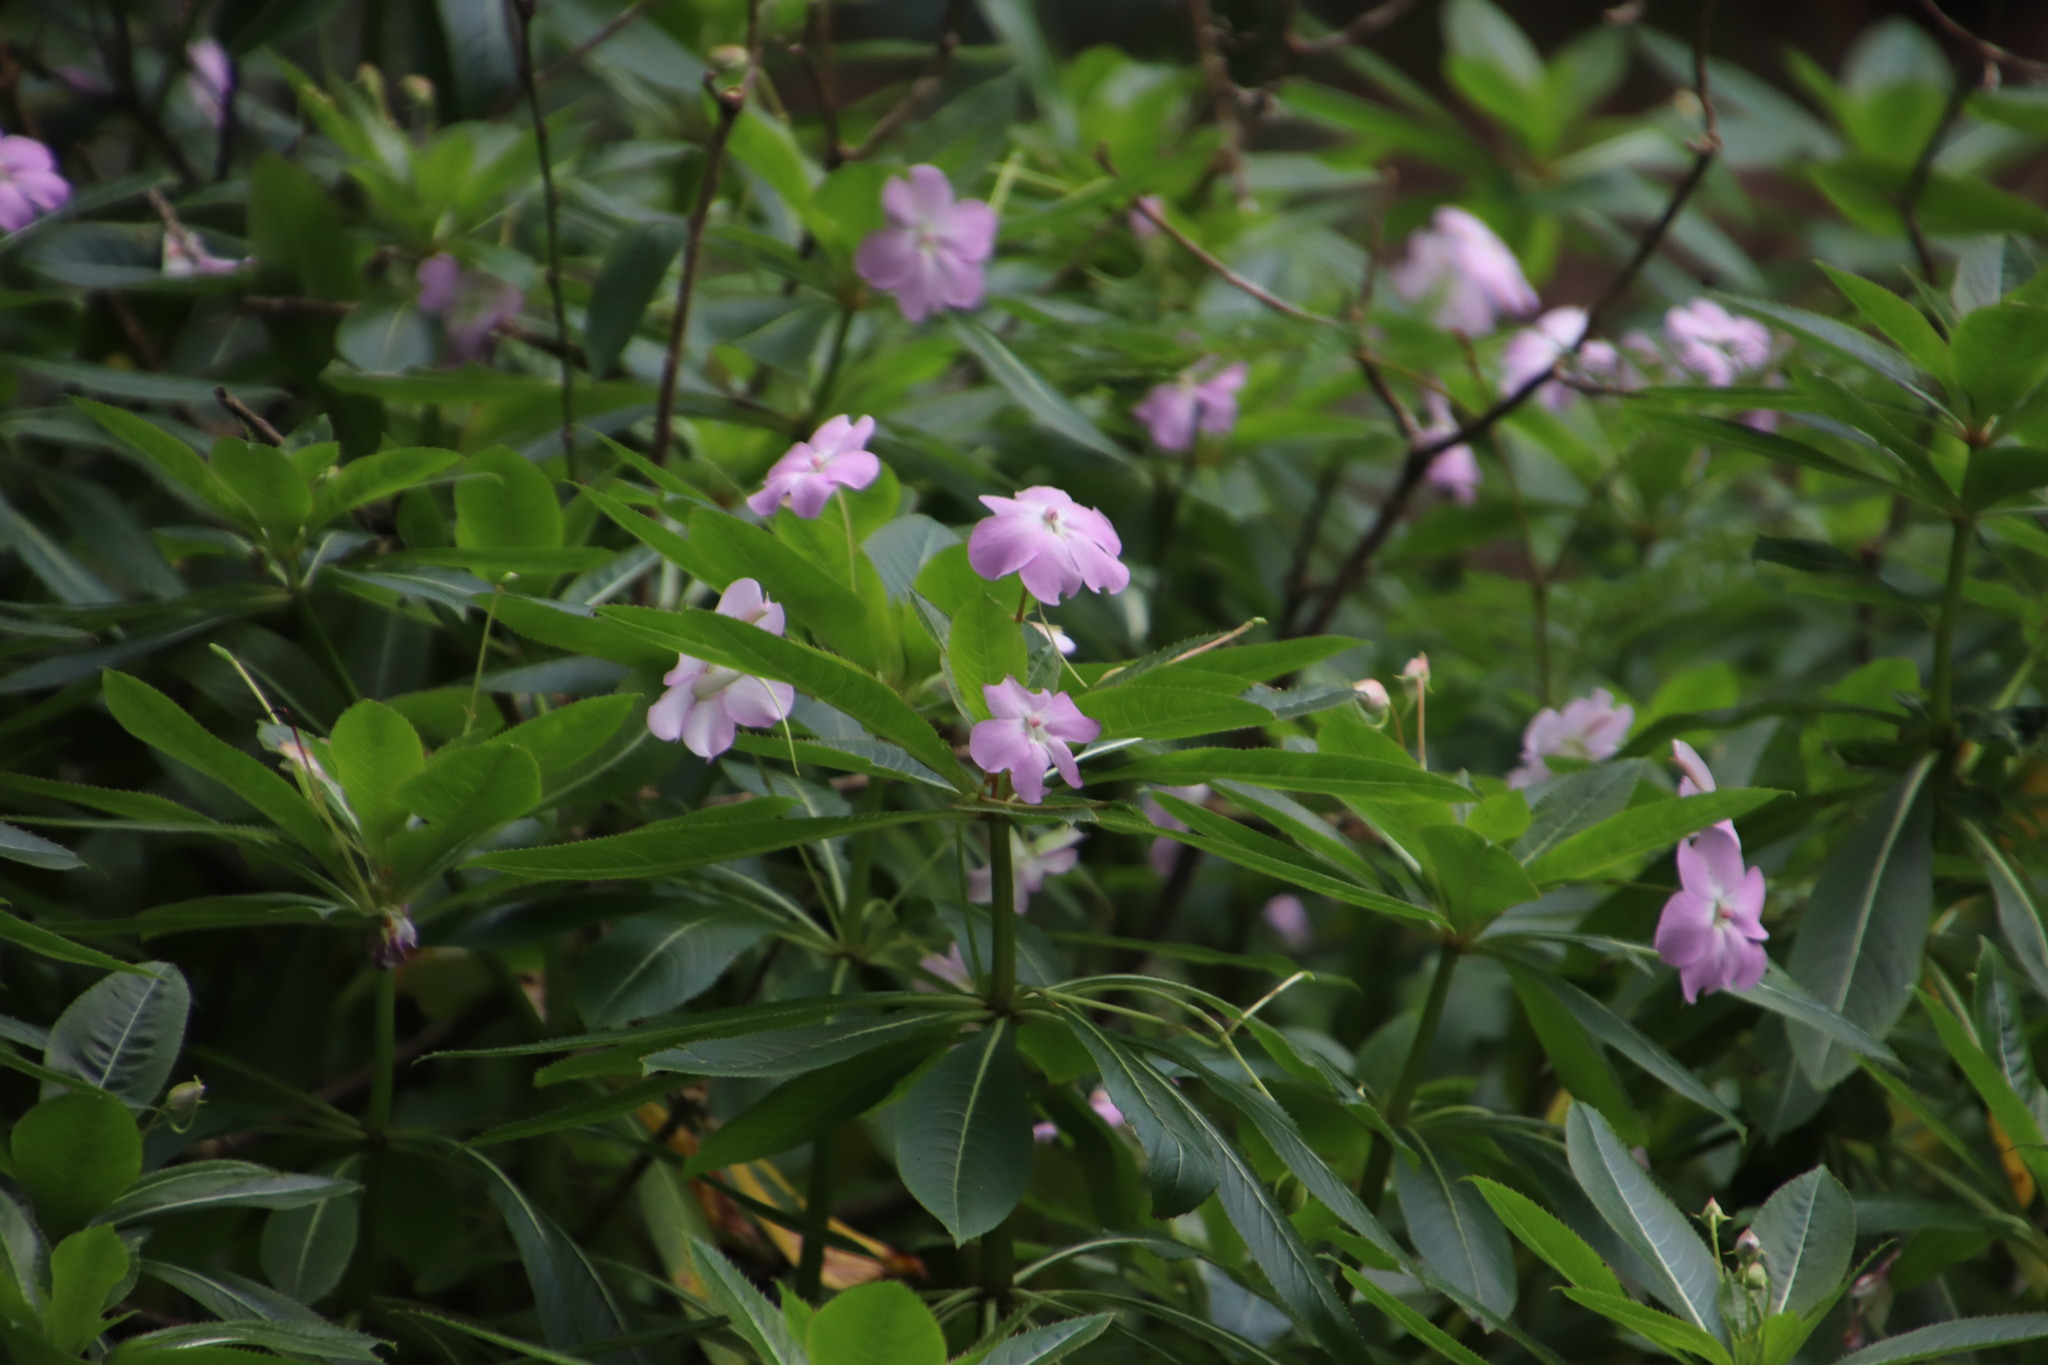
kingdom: Plantae
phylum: Tracheophyta
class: Magnoliopsida
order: Ericales
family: Balsaminaceae
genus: Impatiens
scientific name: Impatiens sodenii
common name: Oliver's touch-me-not
